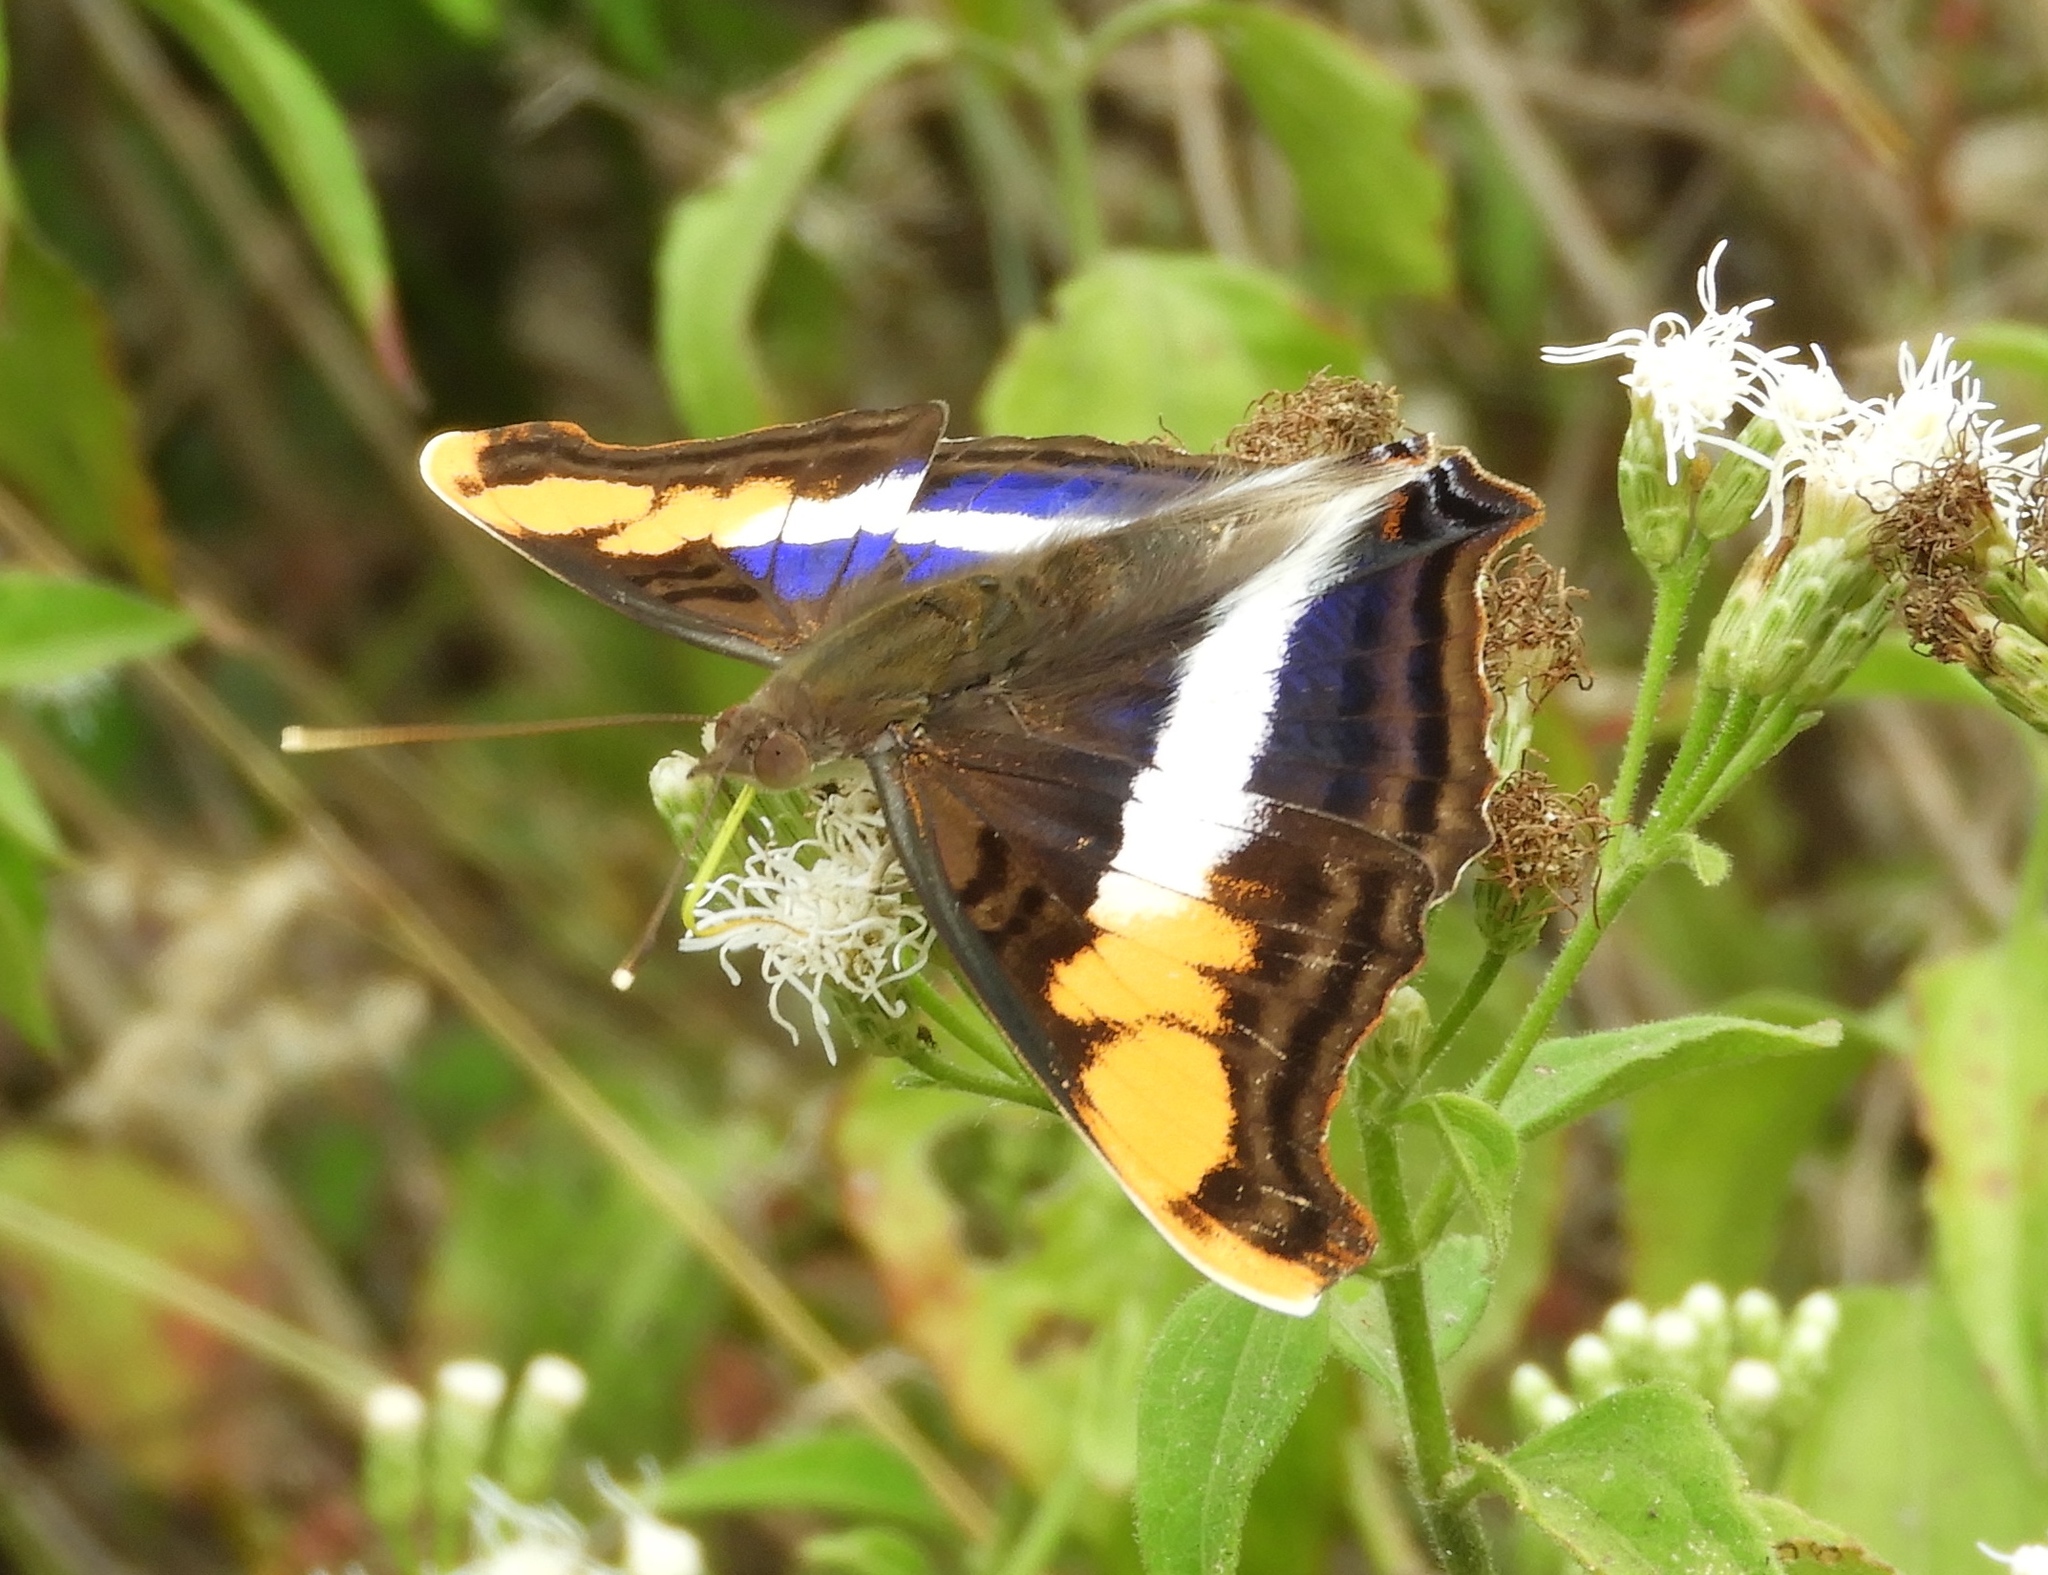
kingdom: Animalia
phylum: Arthropoda
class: Insecta
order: Lepidoptera
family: Nymphalidae
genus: Doxocopa
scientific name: Doxocopa laure
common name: Silver emperor
